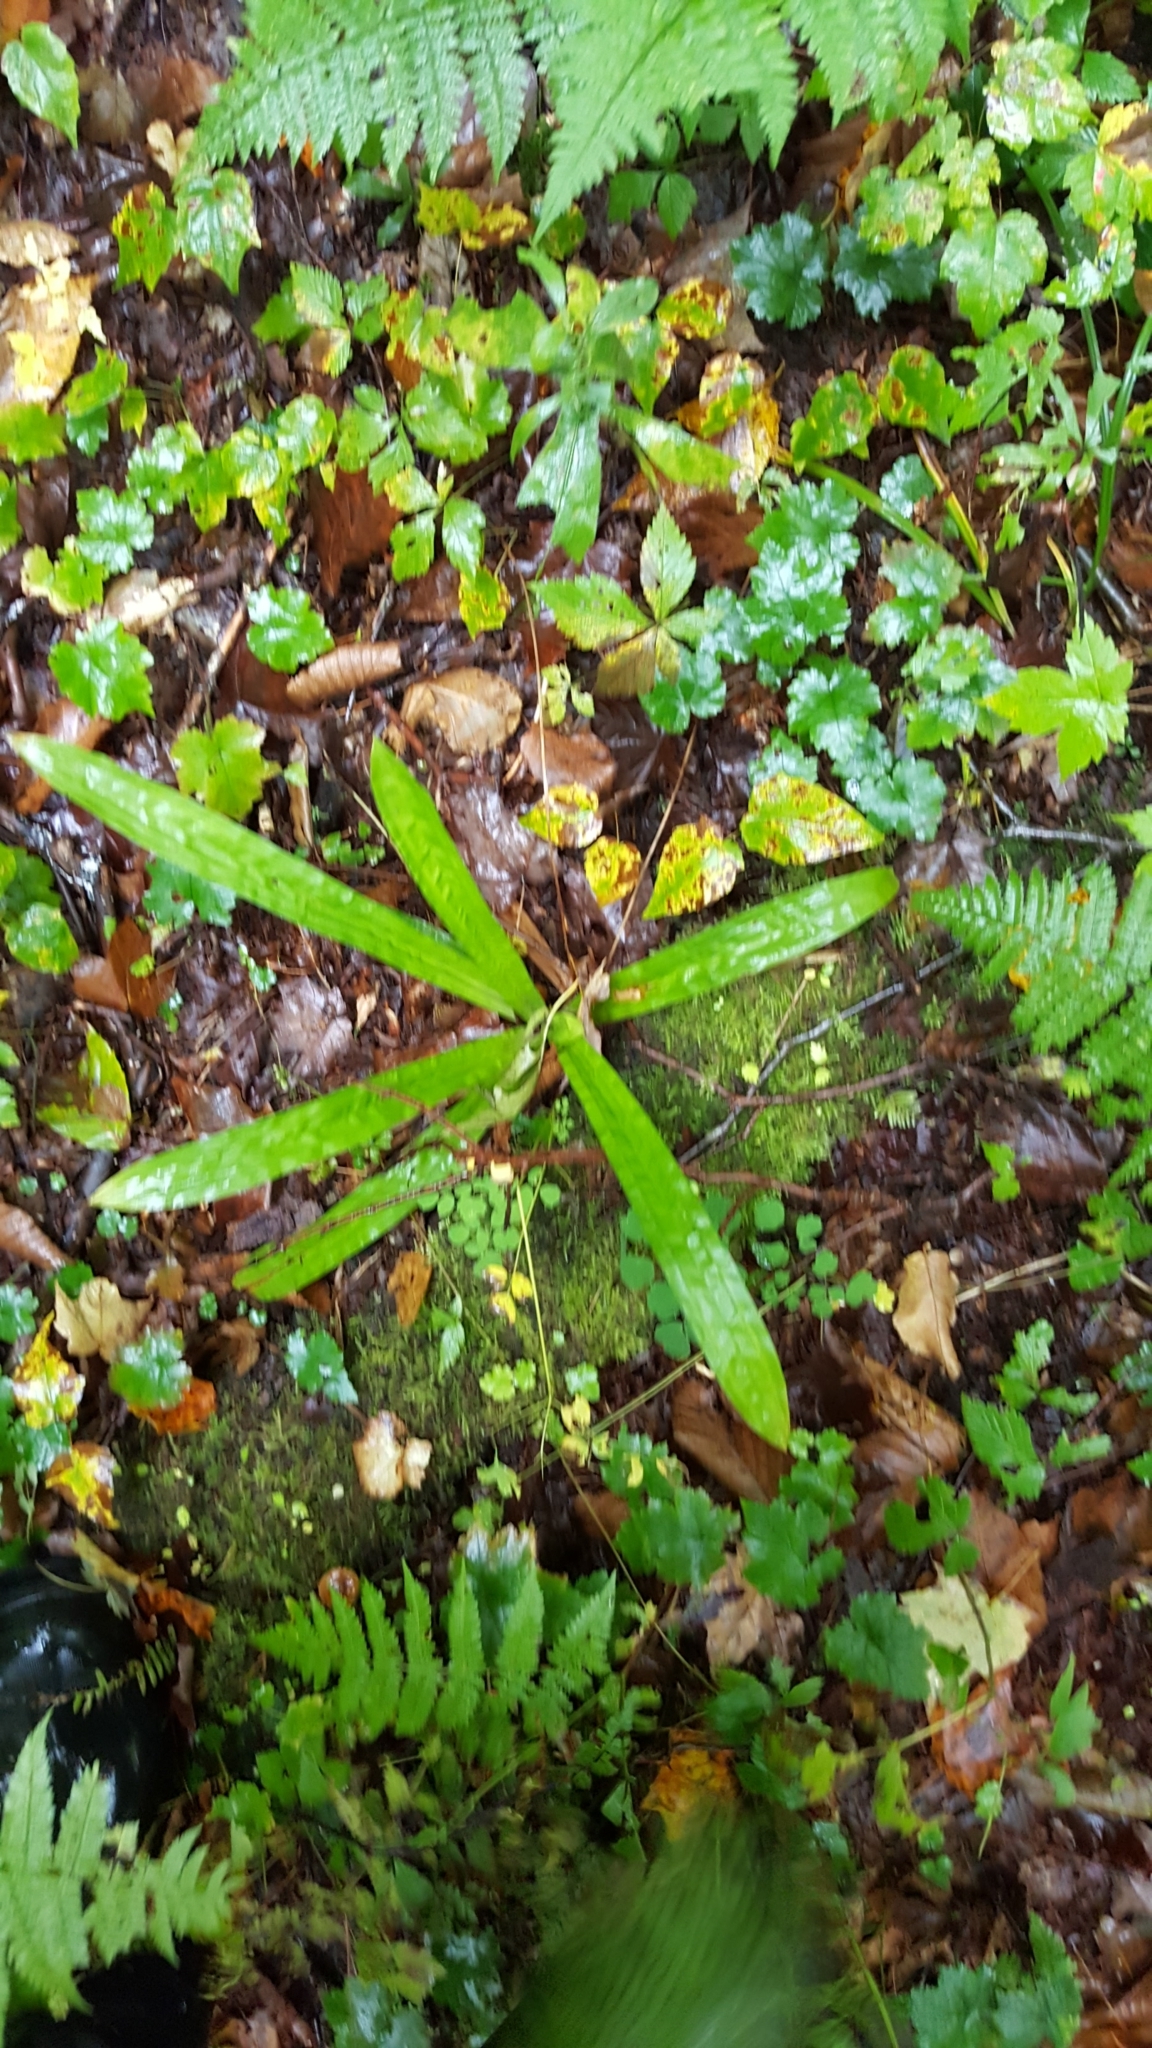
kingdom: Plantae
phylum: Tracheophyta
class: Liliopsida
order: Poales
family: Cyperaceae
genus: Carex
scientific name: Carex plantaginea
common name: Plantain-leaved sedge
